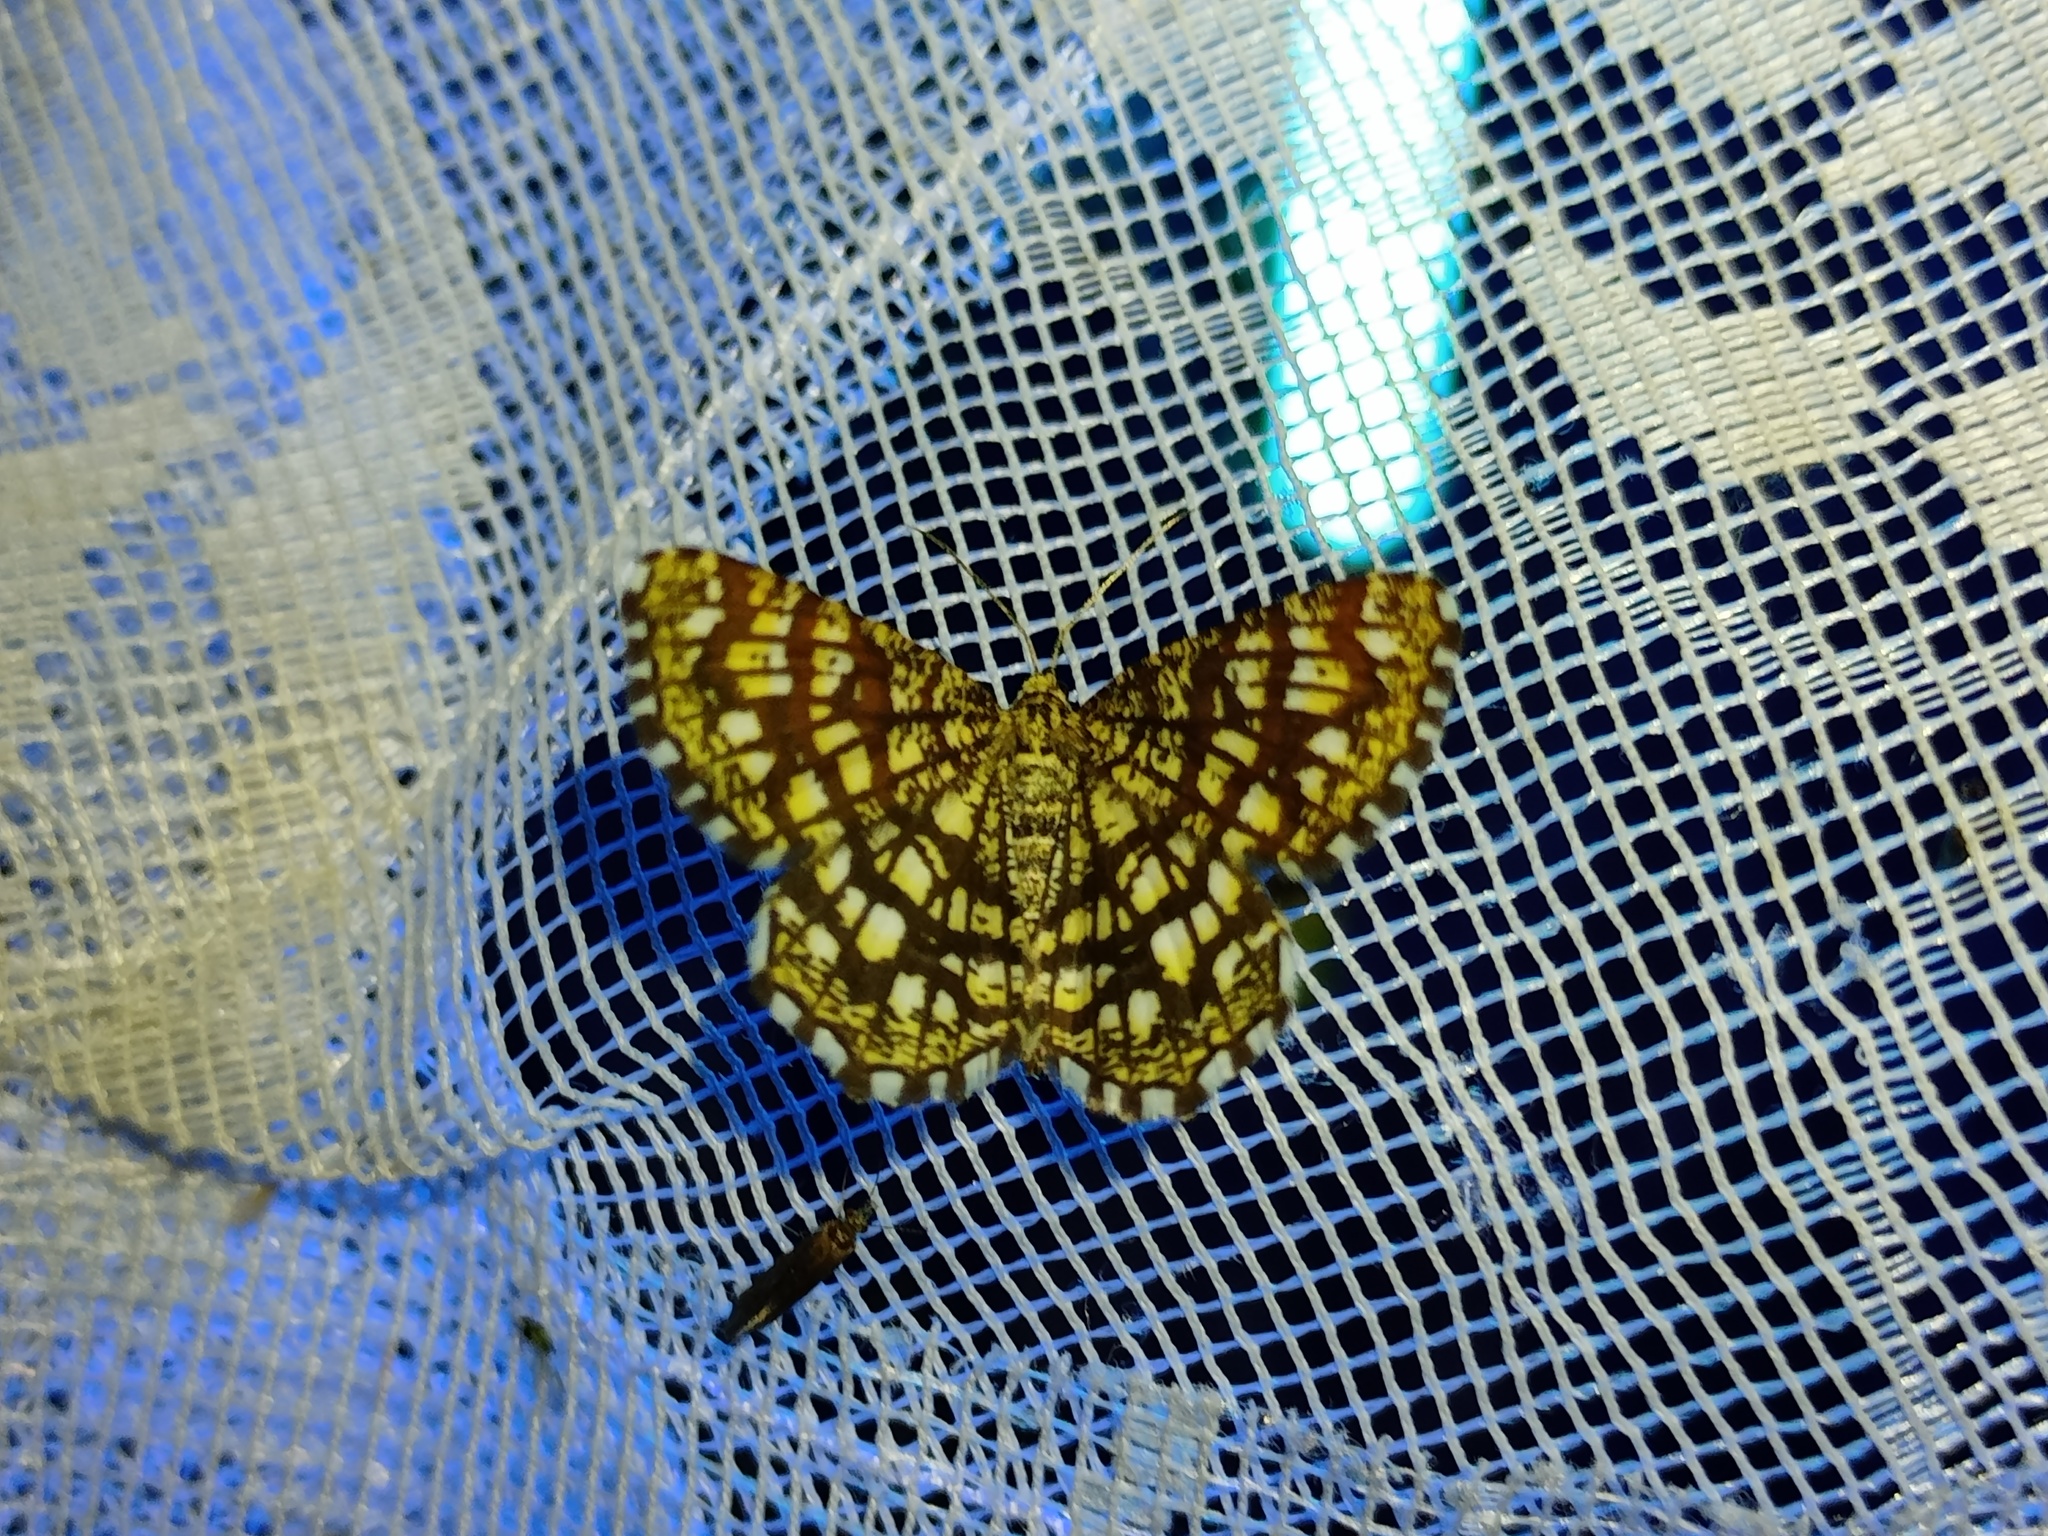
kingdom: Animalia
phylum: Arthropoda
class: Insecta
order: Lepidoptera
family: Geometridae
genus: Chiasmia
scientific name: Chiasmia clathrata
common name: Latticed heath
